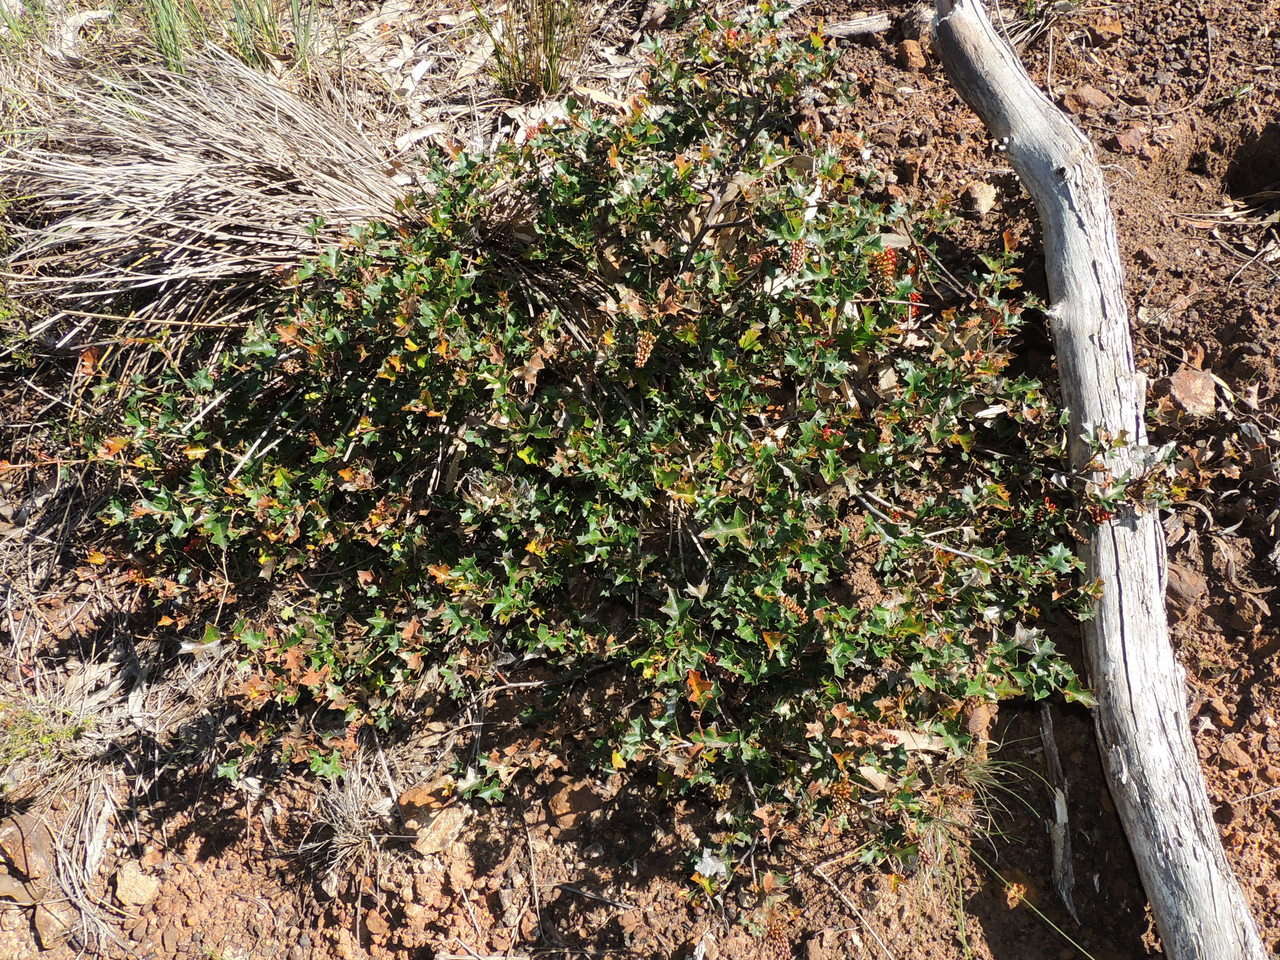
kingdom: Plantae
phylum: Tracheophyta
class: Magnoliopsida
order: Proteales
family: Proteaceae
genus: Grevillea
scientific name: Grevillea steiglitziana
